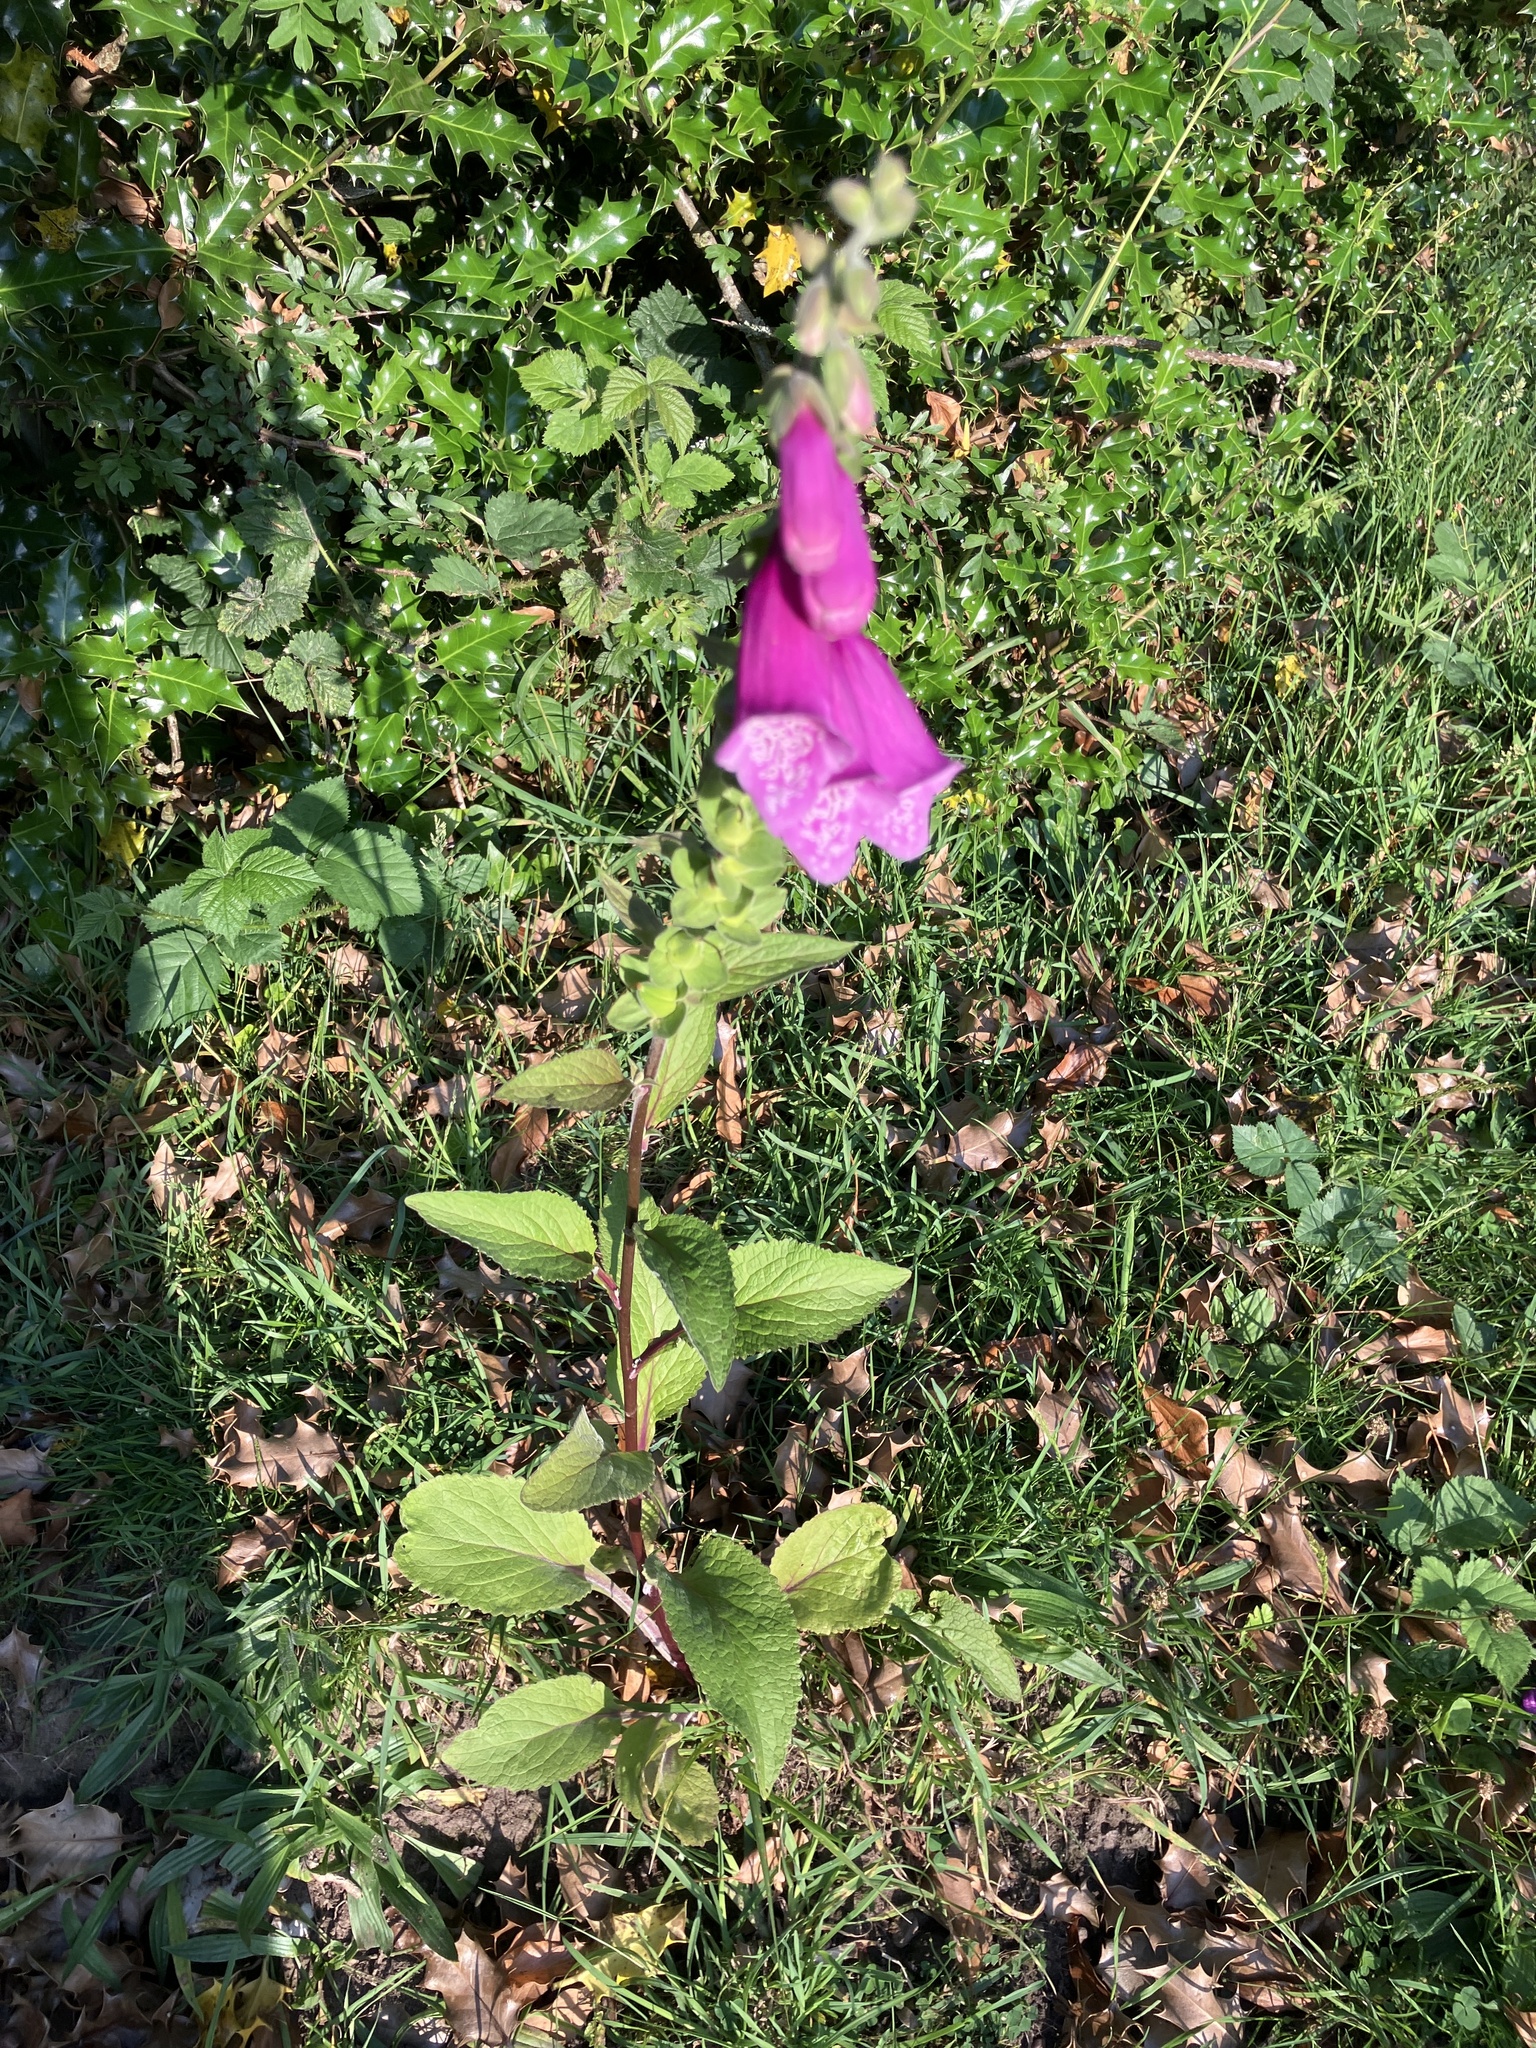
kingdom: Plantae
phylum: Tracheophyta
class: Magnoliopsida
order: Lamiales
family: Plantaginaceae
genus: Digitalis
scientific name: Digitalis purpurea
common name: Foxglove
